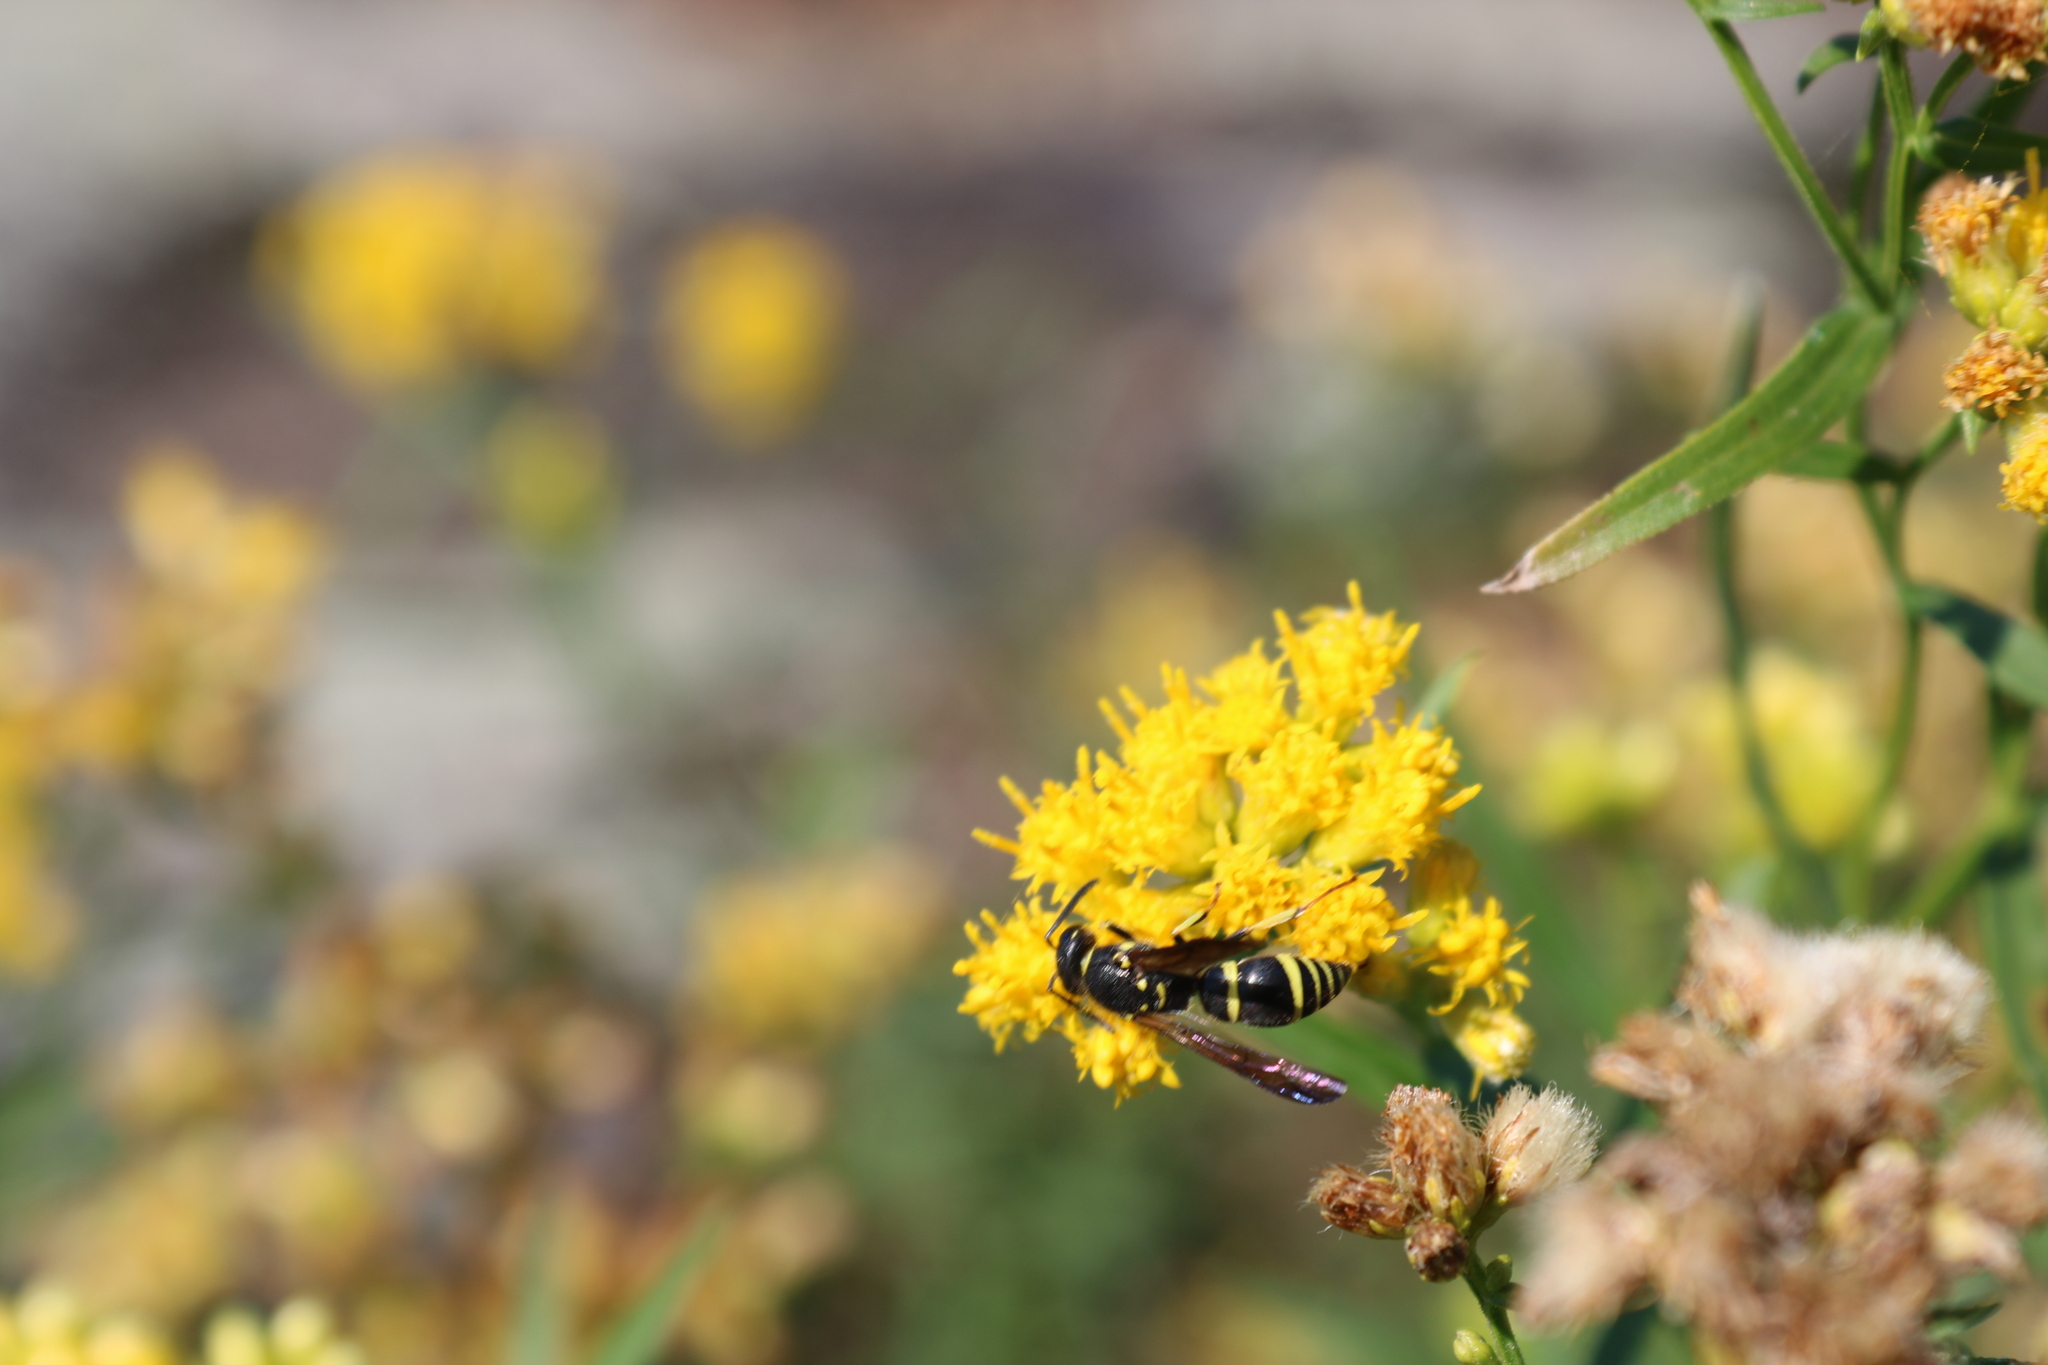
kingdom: Animalia
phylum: Arthropoda
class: Insecta
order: Hymenoptera
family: Vespidae
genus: Ancistrocerus
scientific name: Ancistrocerus
